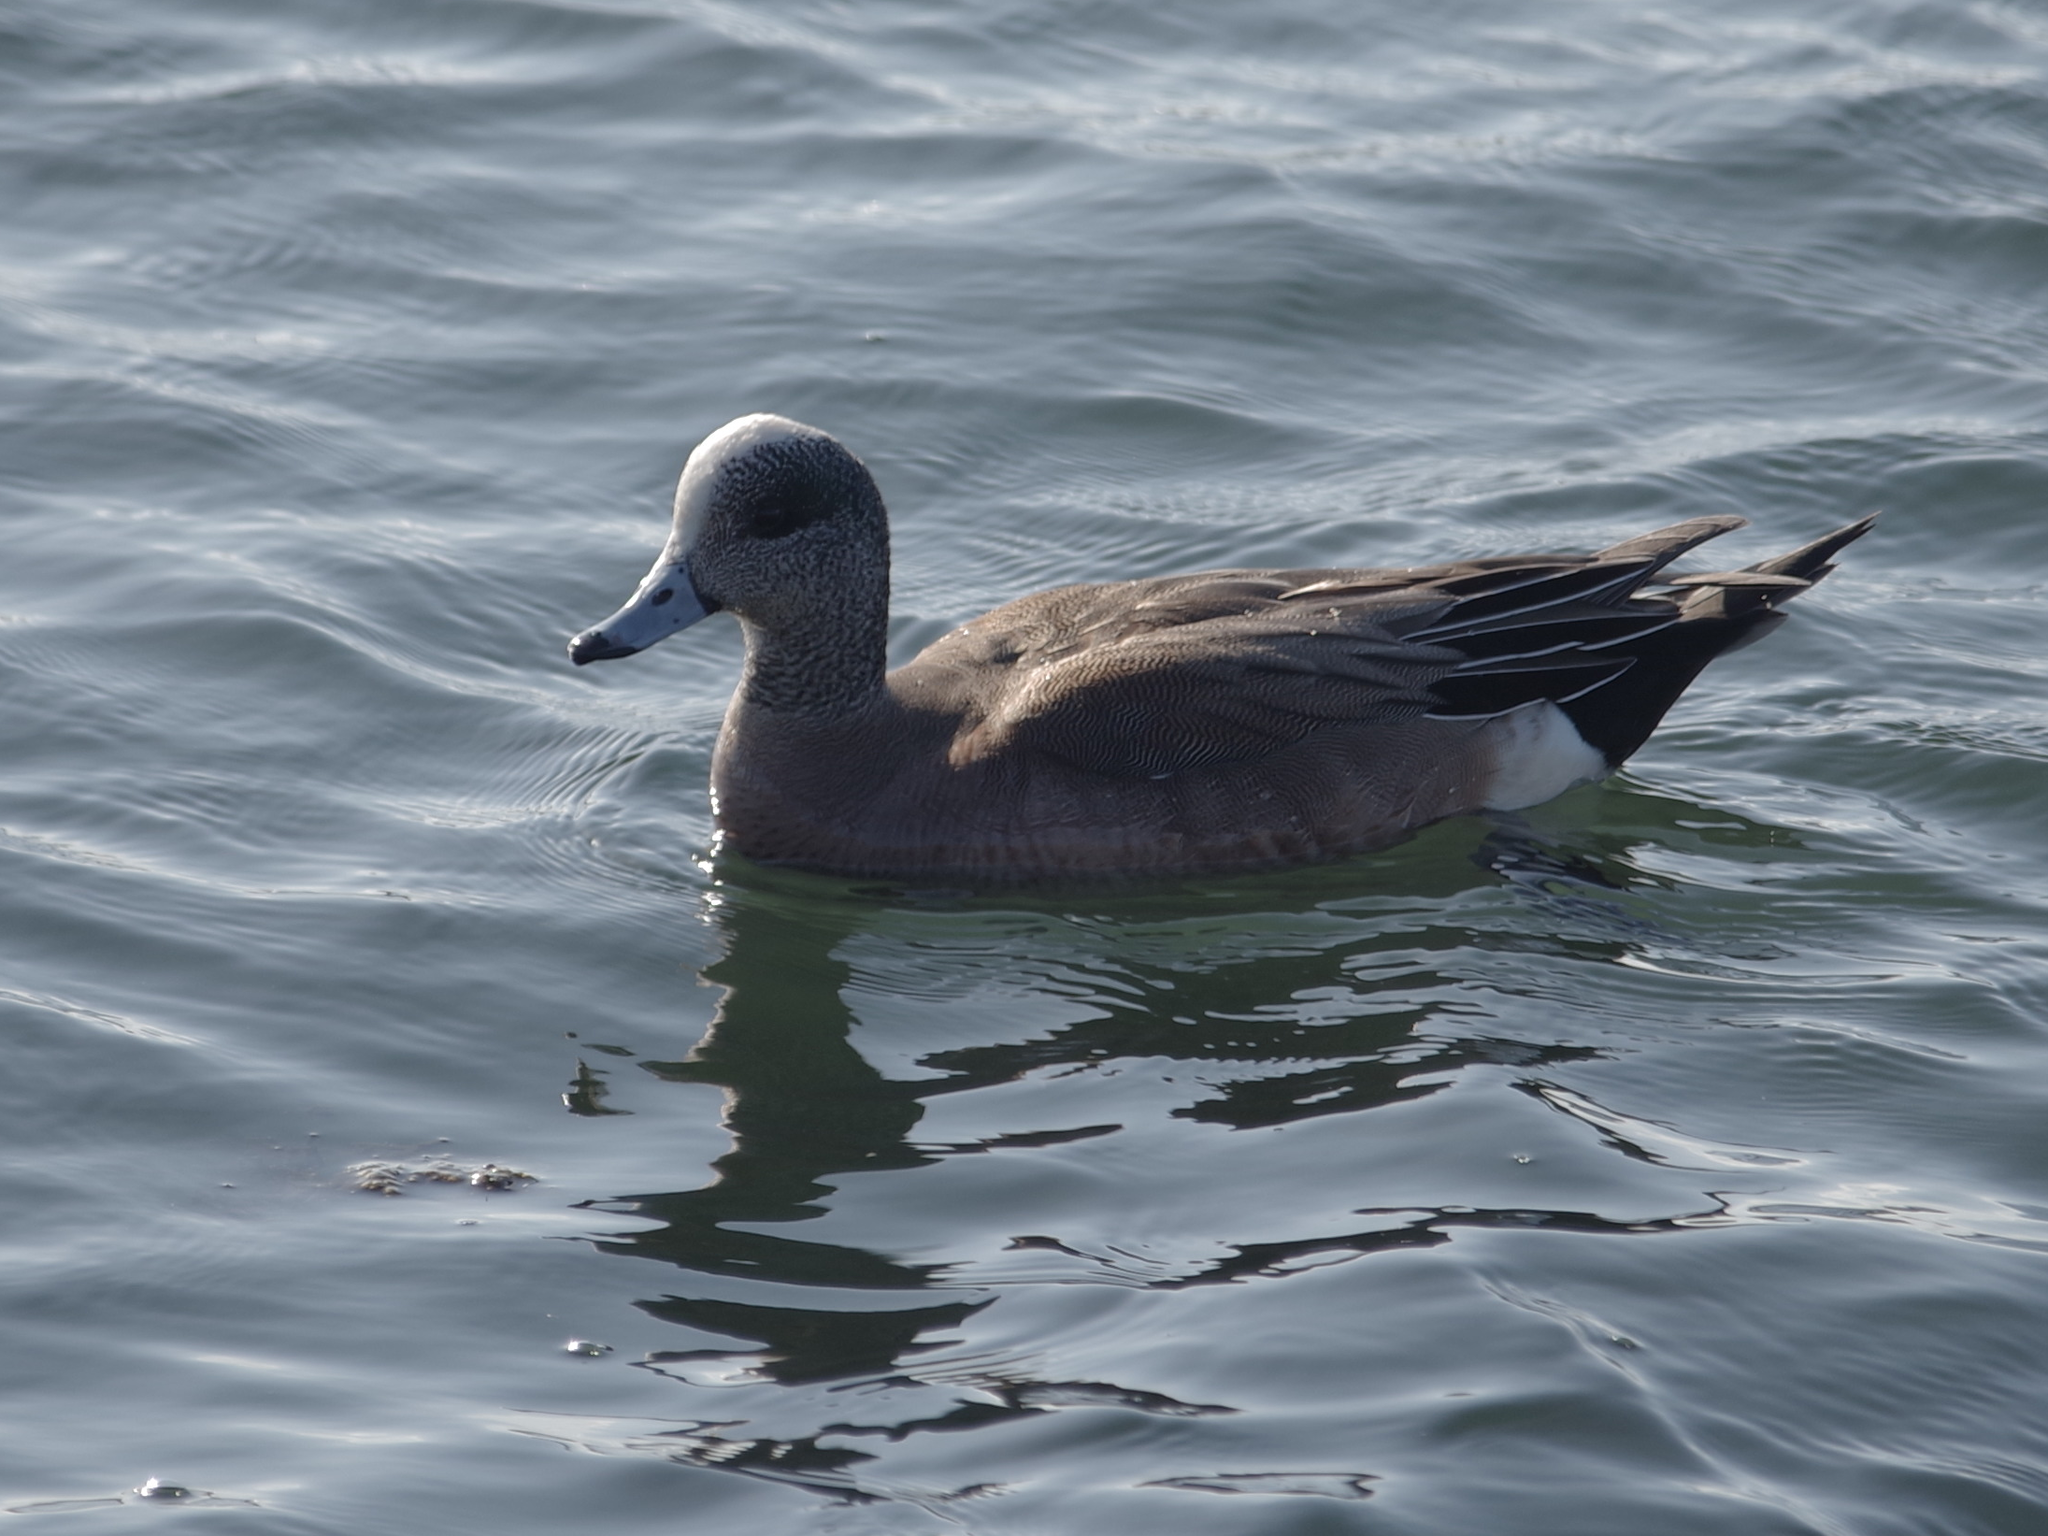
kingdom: Animalia
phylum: Chordata
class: Aves
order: Anseriformes
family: Anatidae
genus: Mareca
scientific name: Mareca americana
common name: American wigeon
